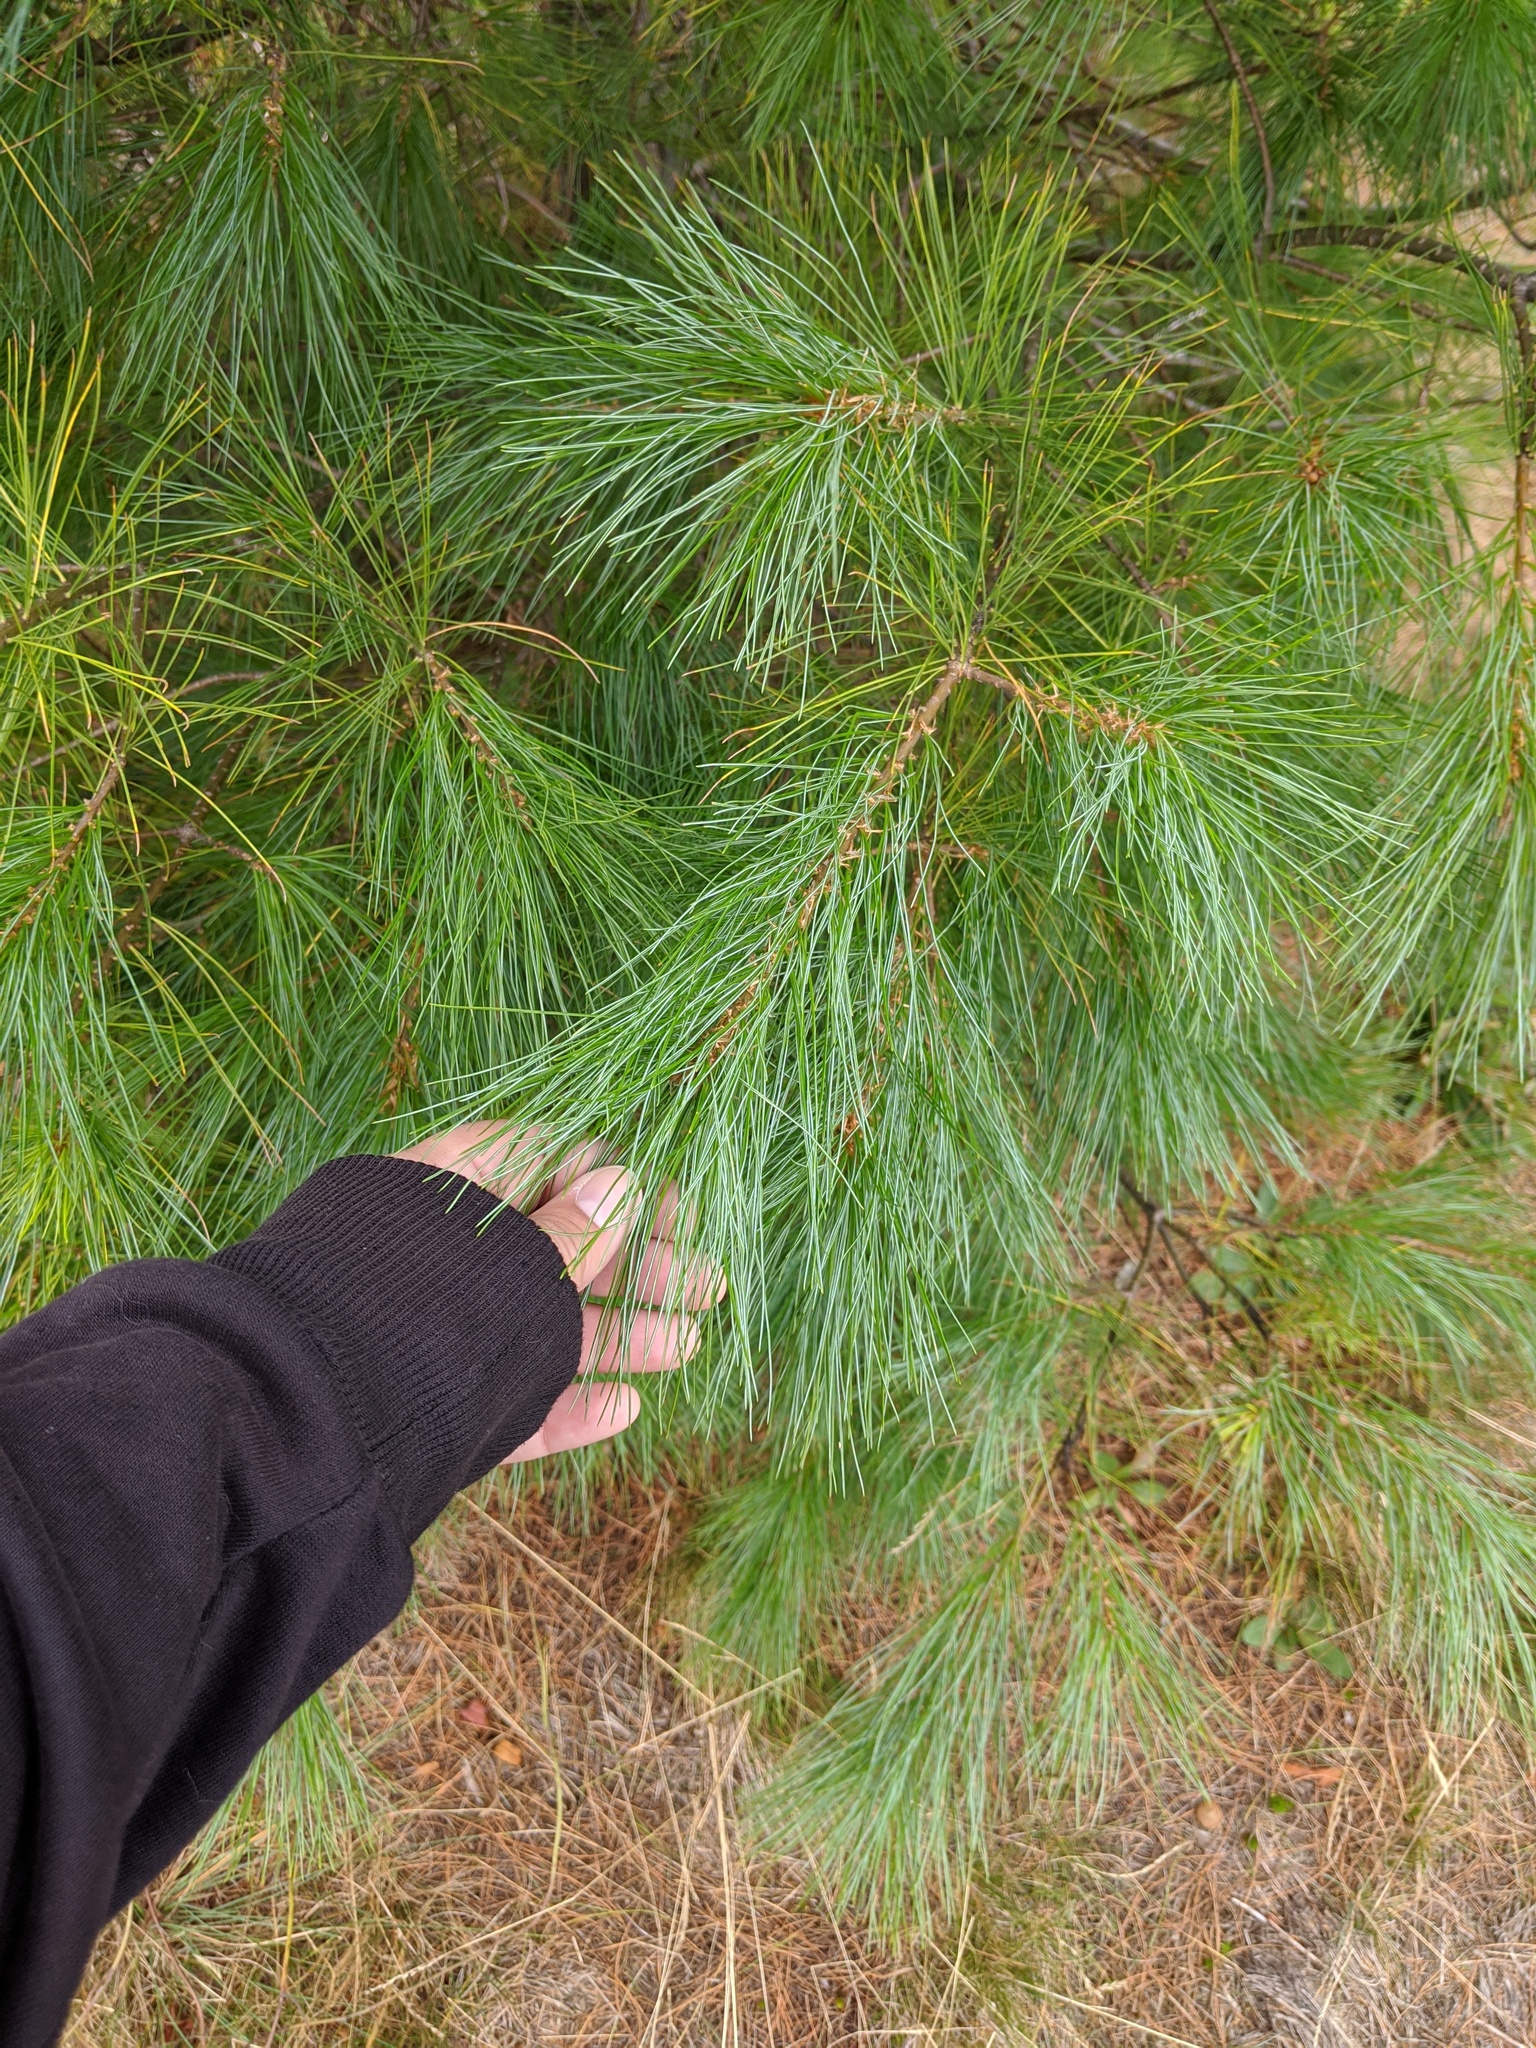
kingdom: Plantae
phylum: Tracheophyta
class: Pinopsida
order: Pinales
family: Pinaceae
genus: Pinus
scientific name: Pinus strobus
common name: Weymouth pine
